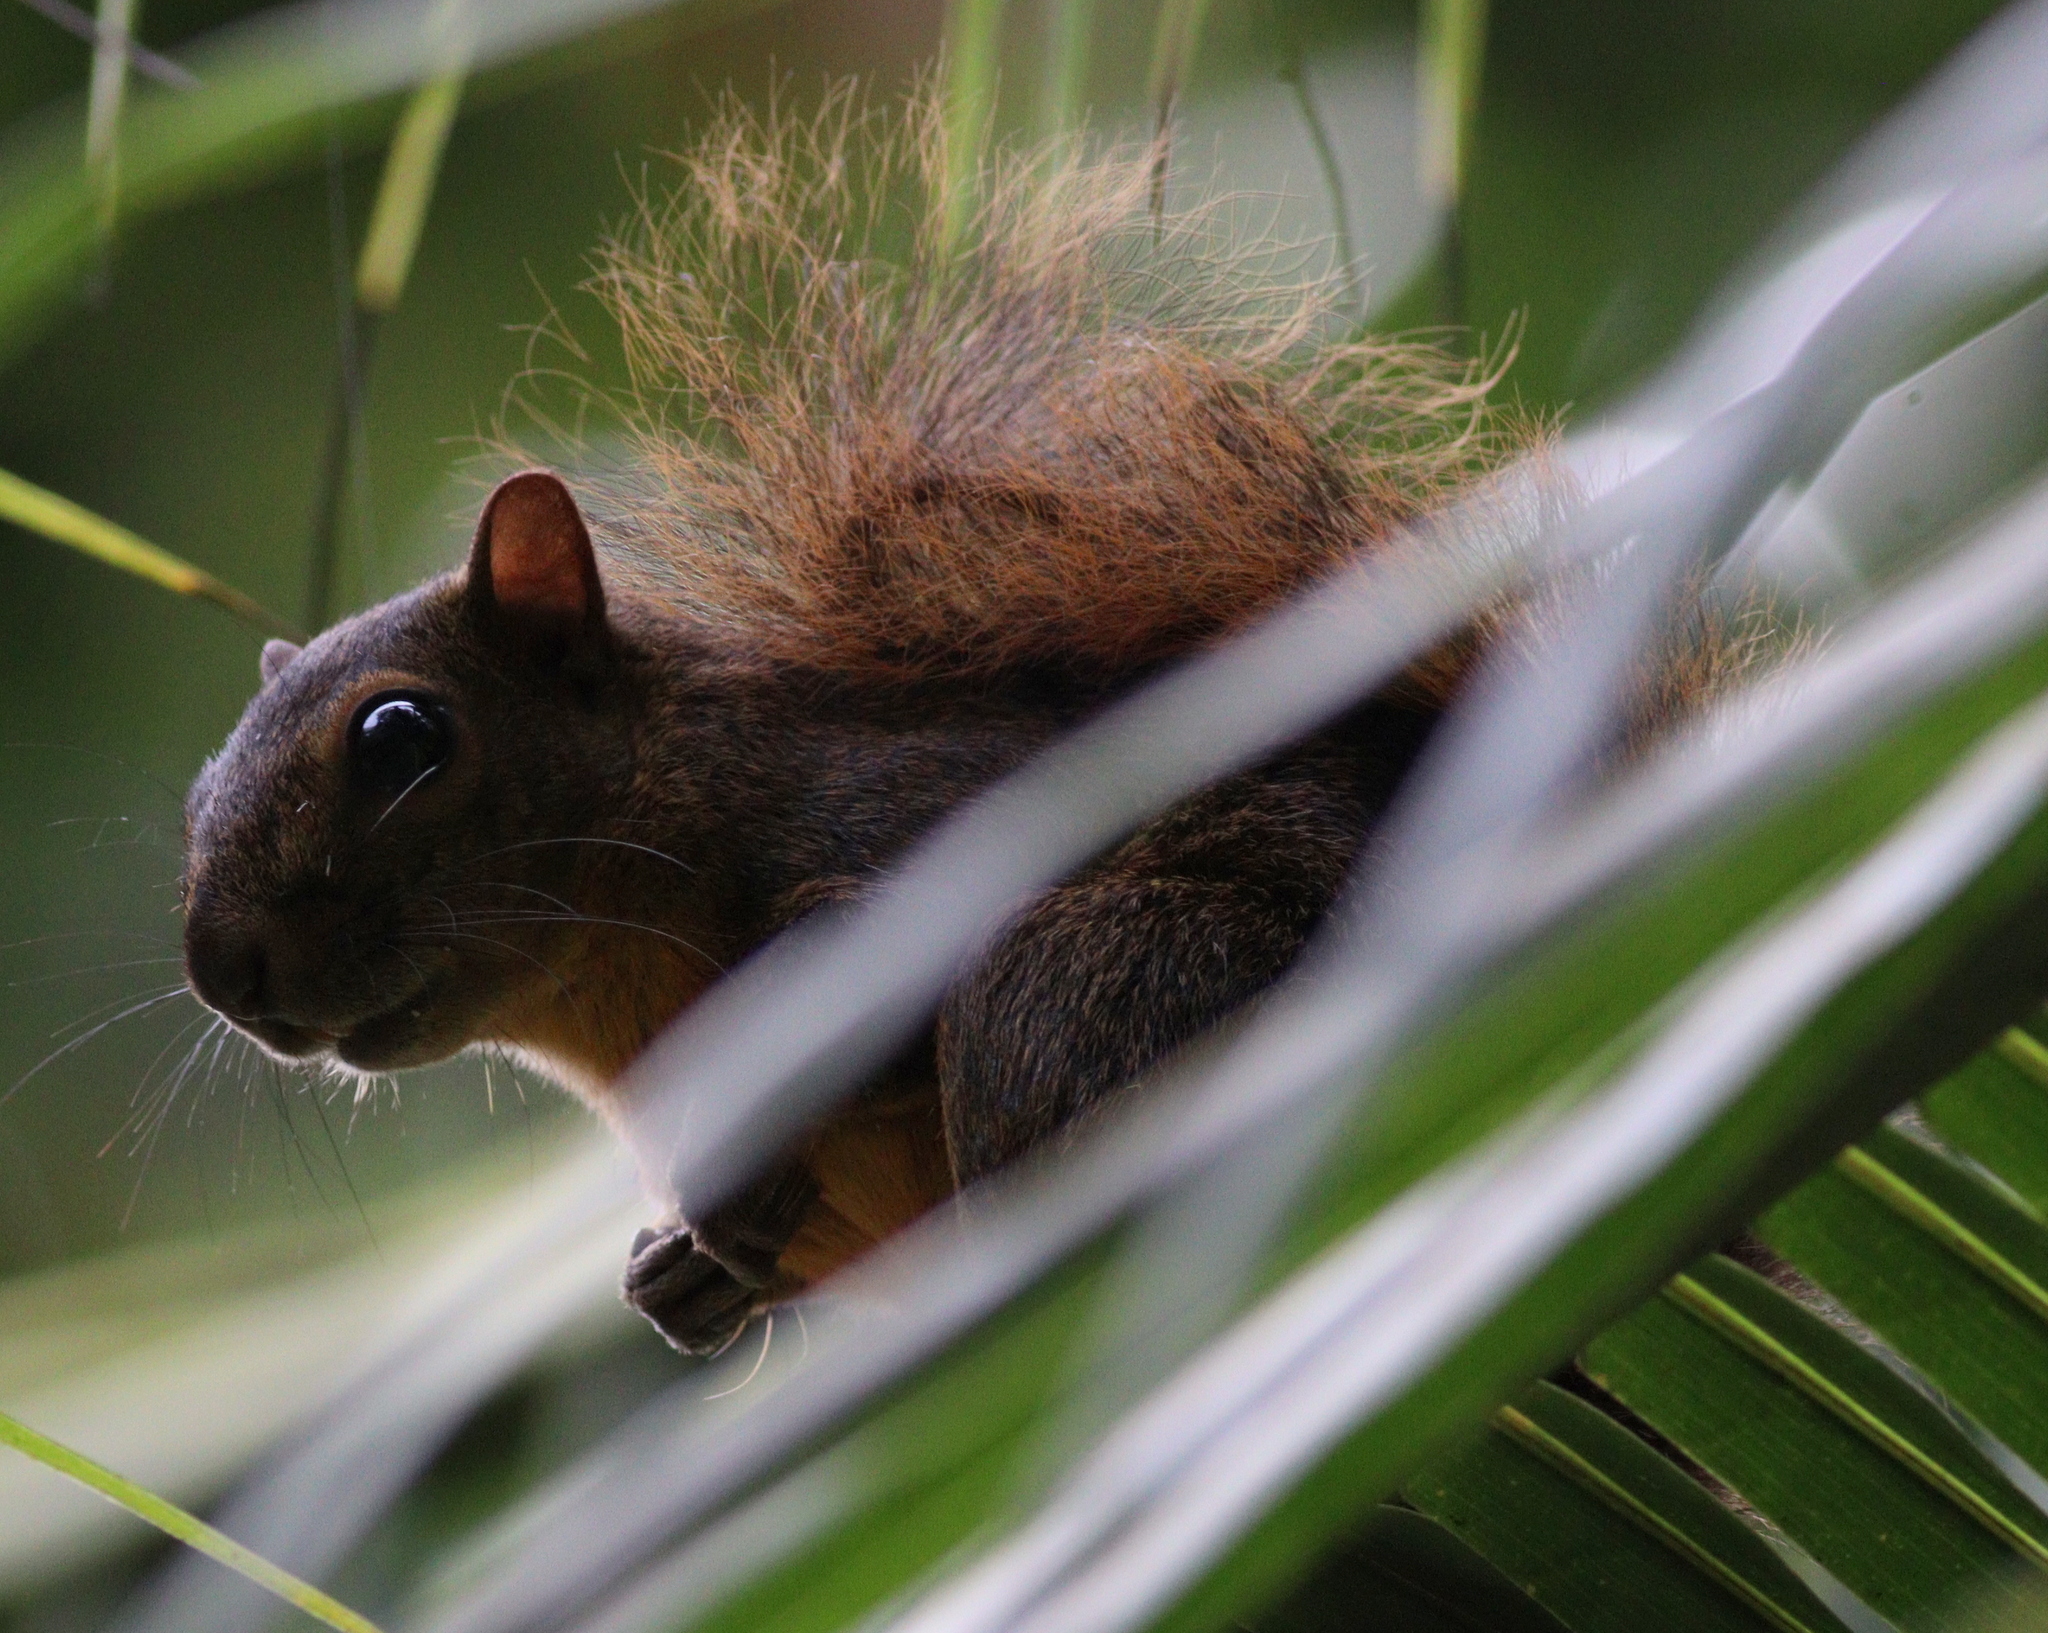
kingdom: Animalia
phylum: Chordata
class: Mammalia
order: Rodentia
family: Sciuridae
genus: Sciurus
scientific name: Sciurus granatensis
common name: Red-tailed squirrel
